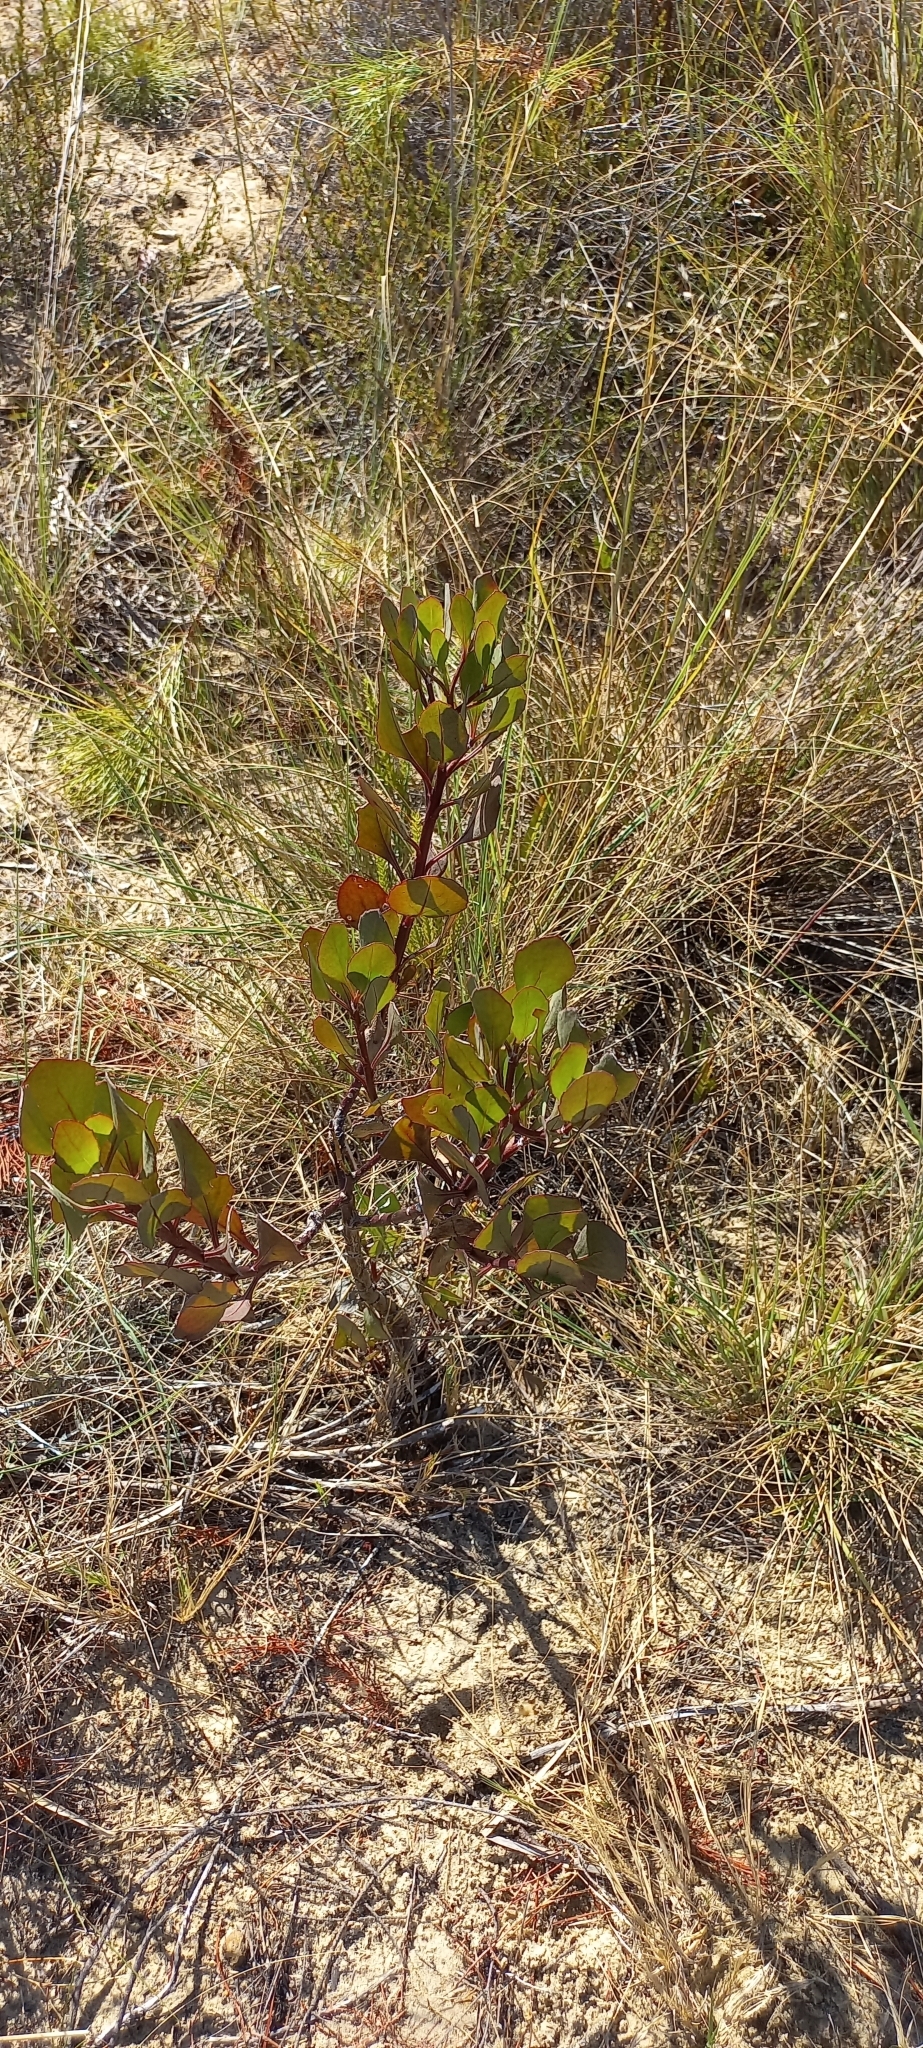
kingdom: Plantae
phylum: Tracheophyta
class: Magnoliopsida
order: Asterales
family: Asteraceae
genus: Osteospermum
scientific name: Osteospermum moniliferum
